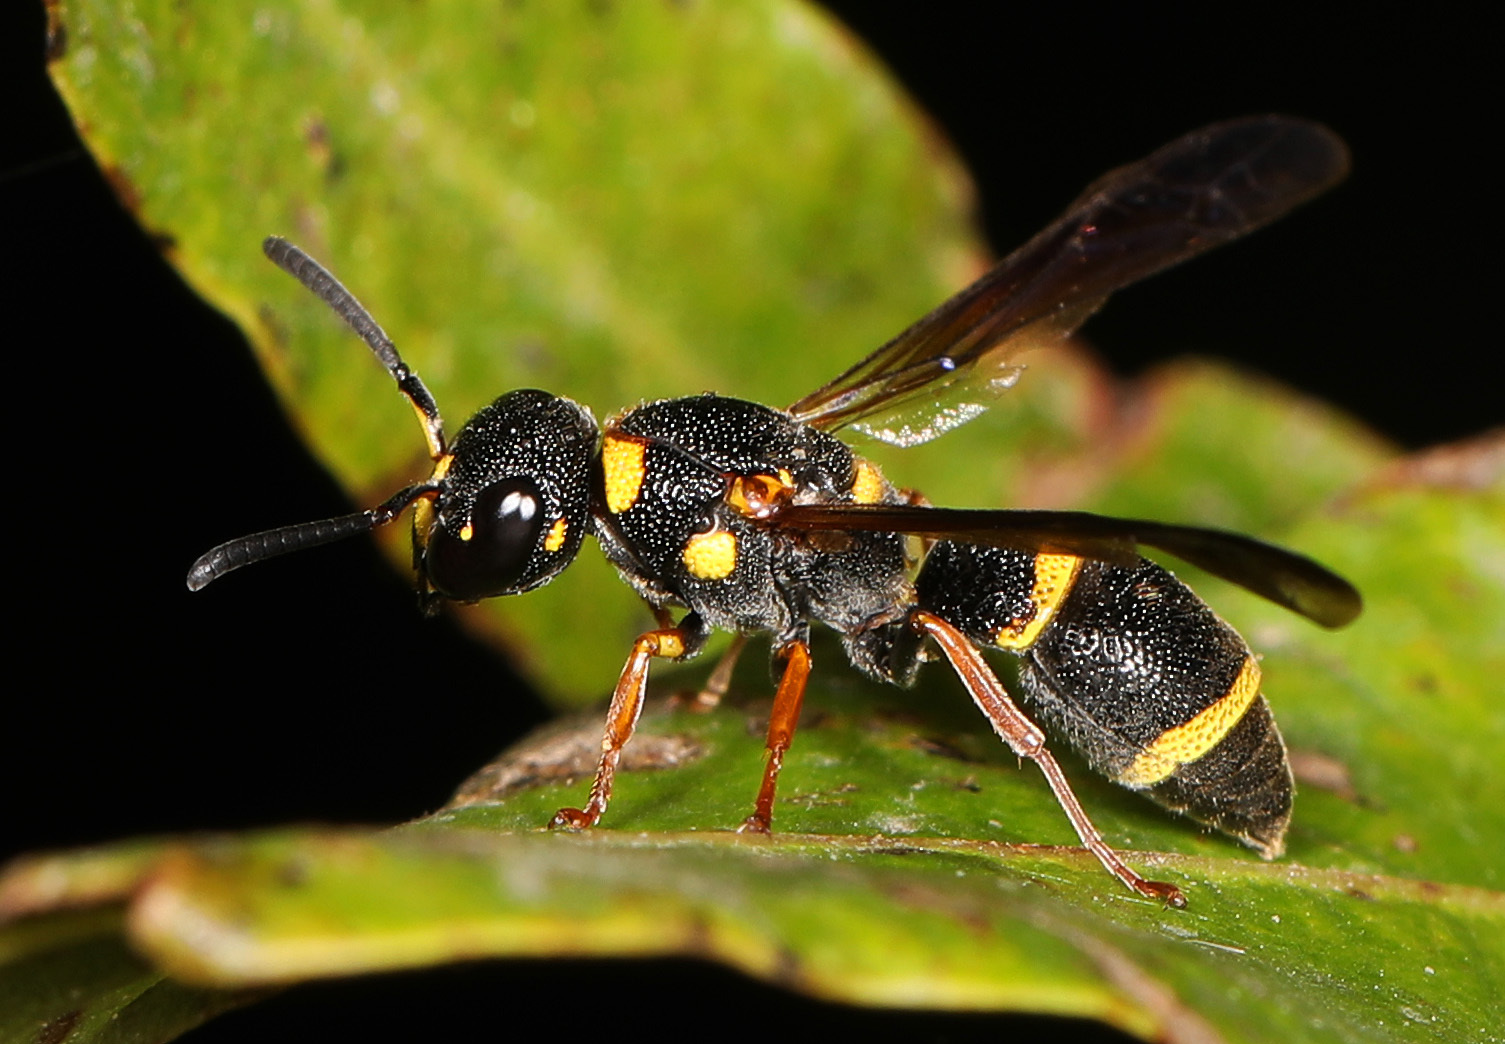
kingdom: Animalia
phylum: Arthropoda
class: Insecta
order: Hymenoptera
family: Eumenidae
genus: Parancistrocerus
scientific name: Parancistrocerus perennis
